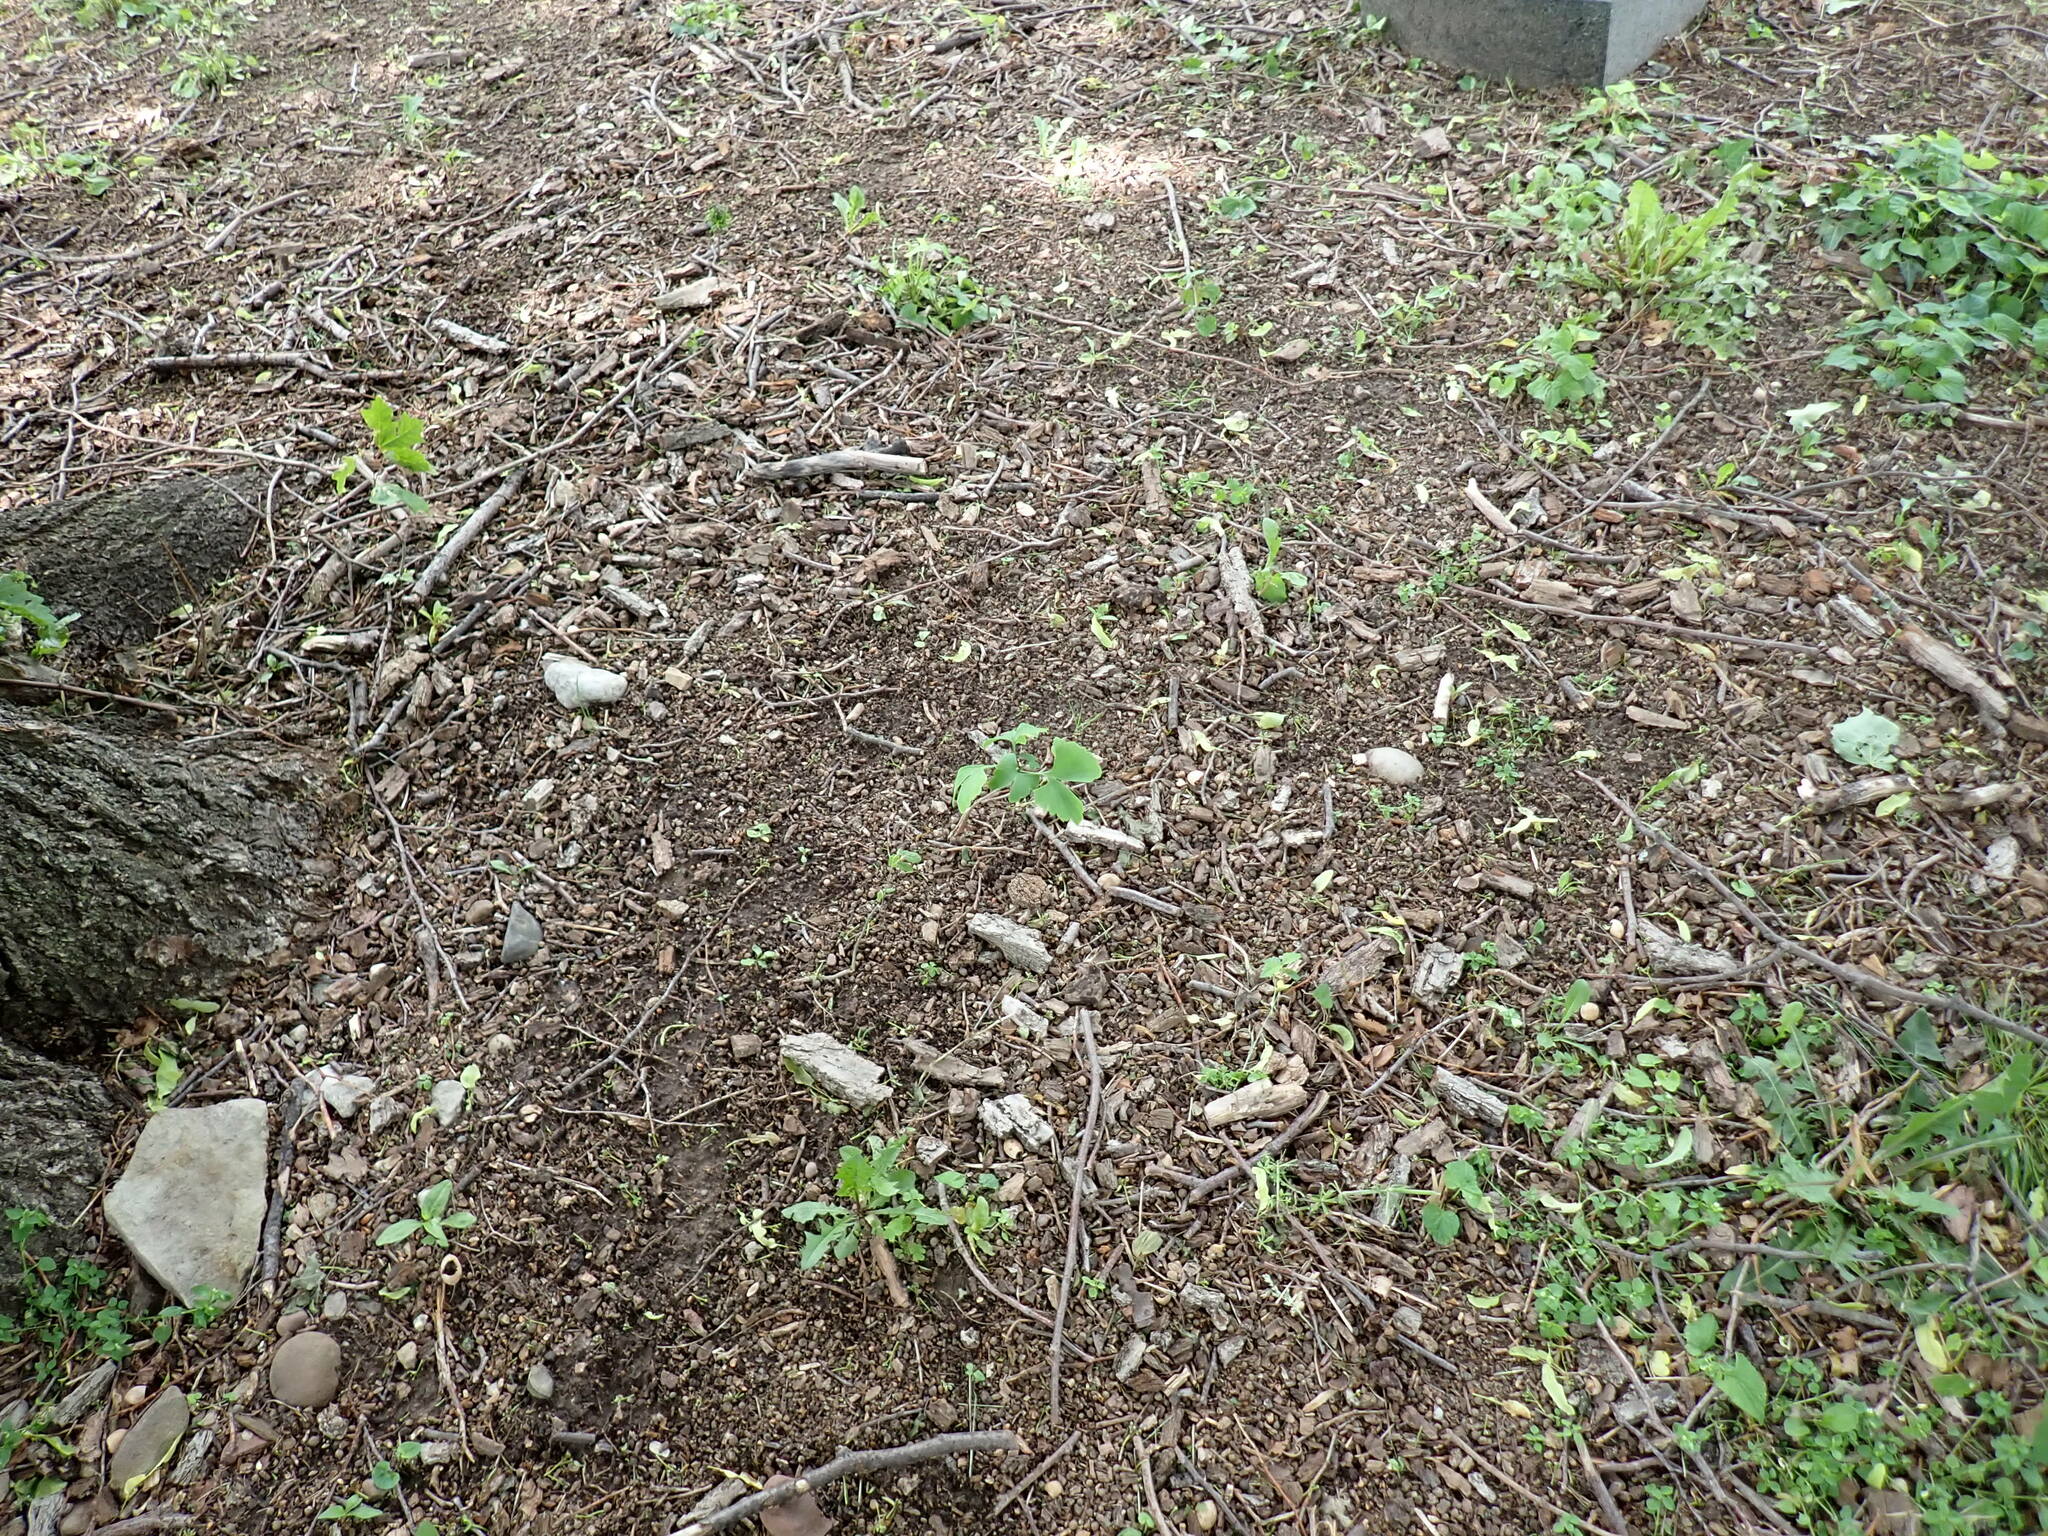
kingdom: Plantae
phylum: Tracheophyta
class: Ginkgoopsida
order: Ginkgoales
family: Ginkgoaceae
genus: Ginkgo
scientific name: Ginkgo biloba
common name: Ginkgo
